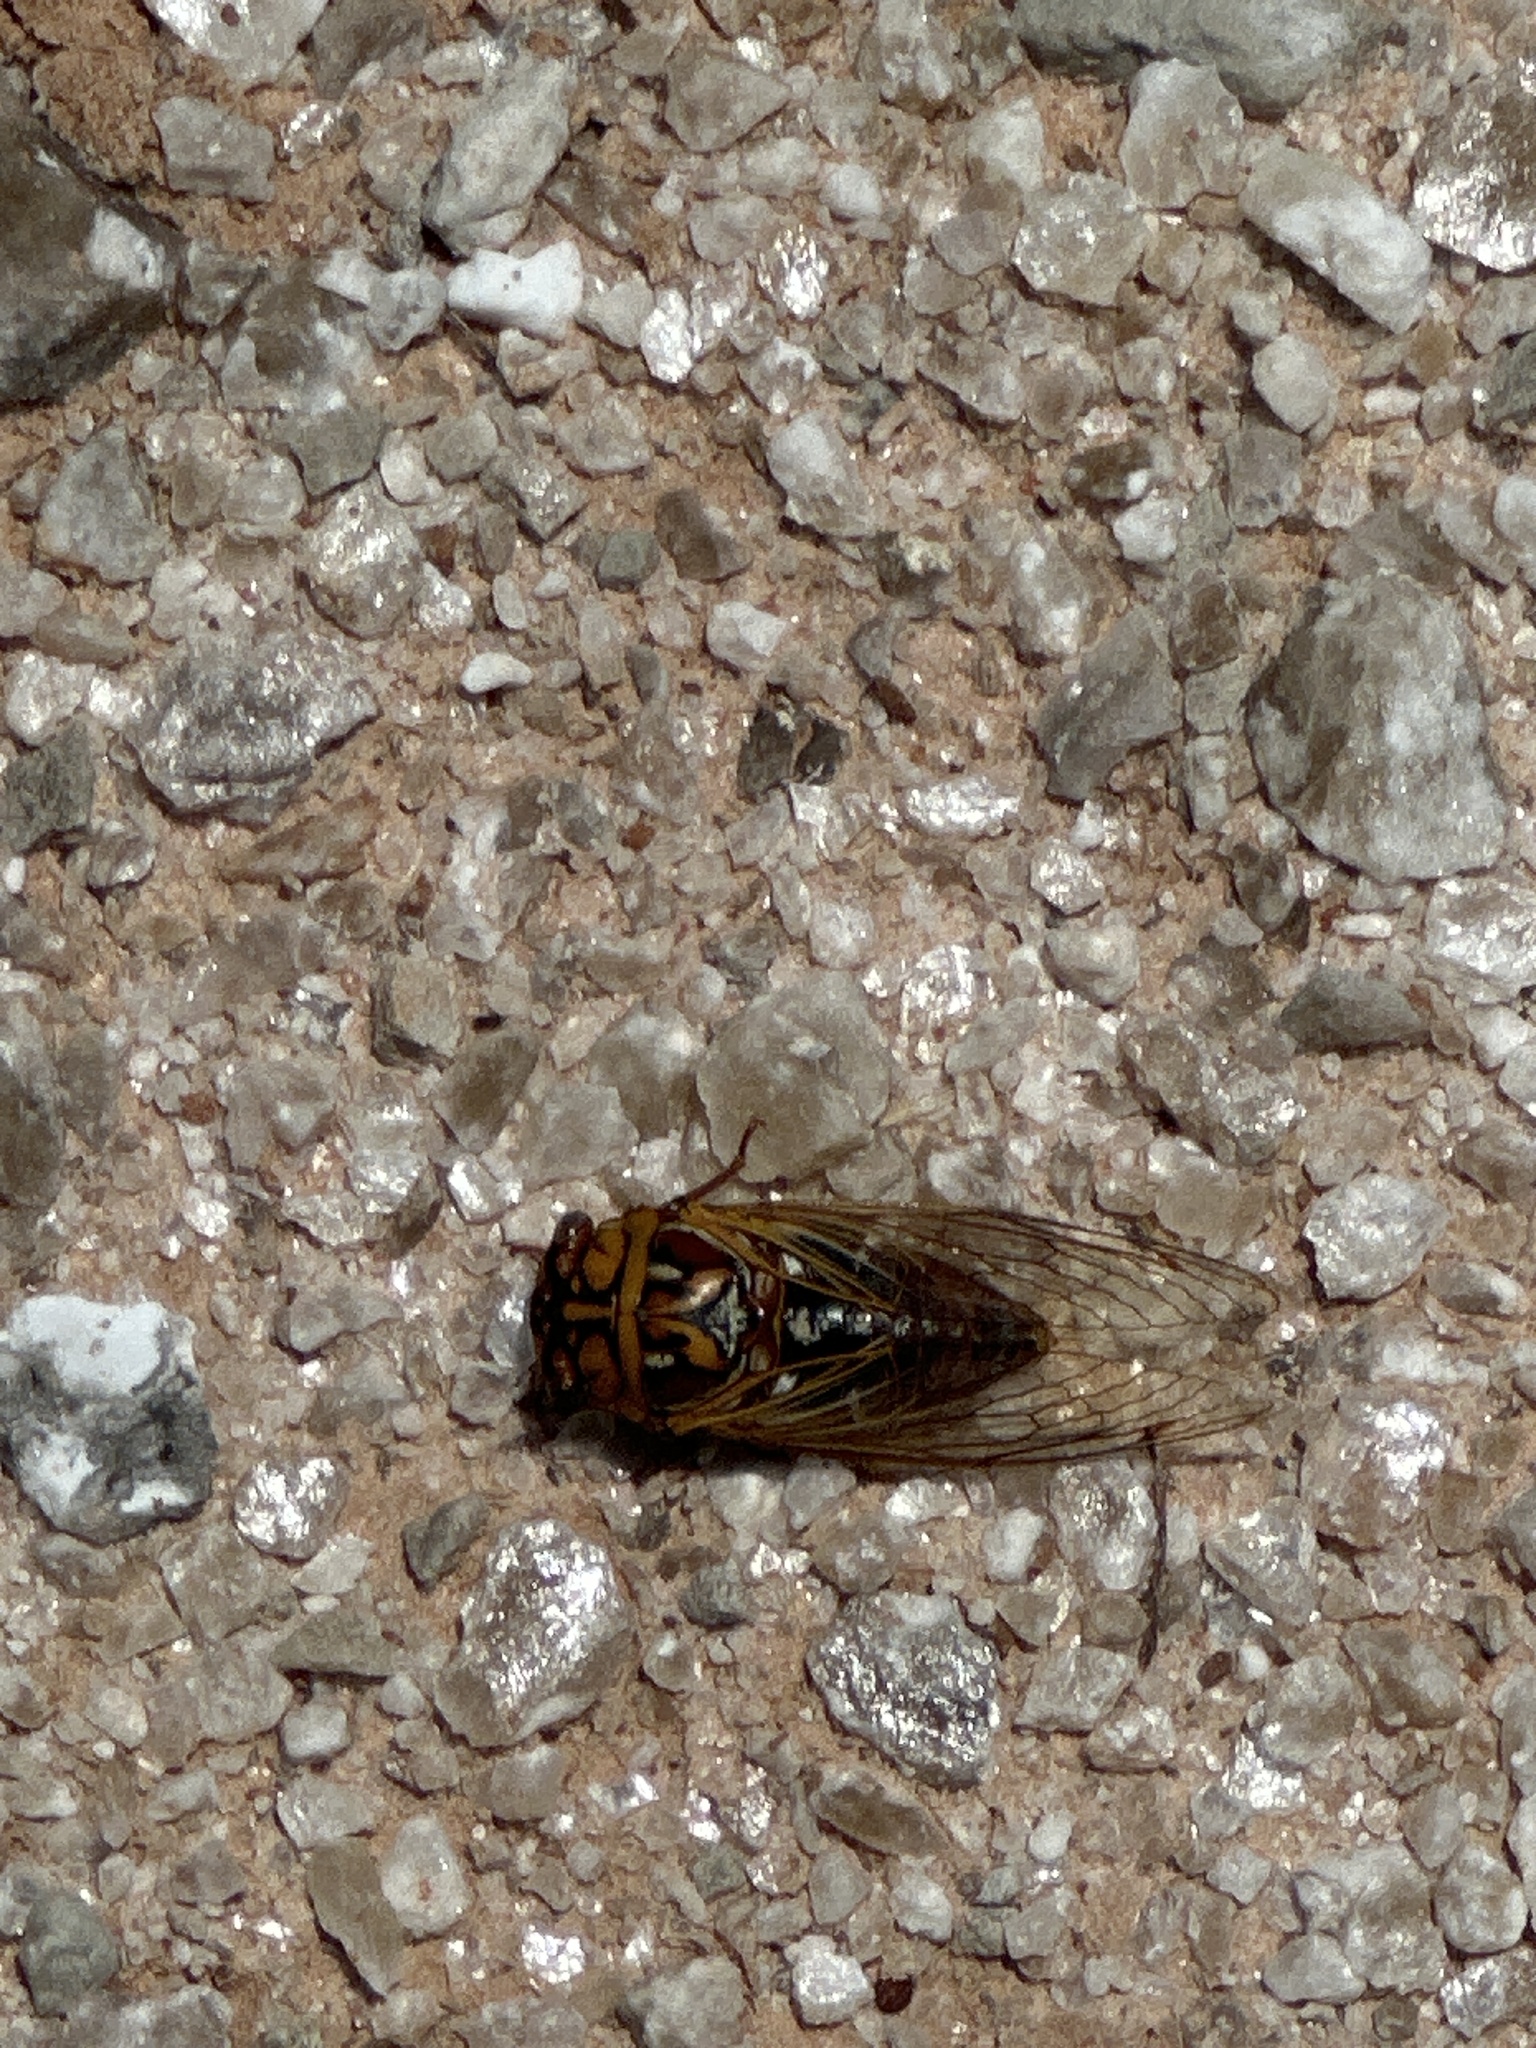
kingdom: Animalia
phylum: Arthropoda
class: Insecta
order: Hemiptera
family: Cicadidae
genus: Megatibicen
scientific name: Megatibicen dealbatus
